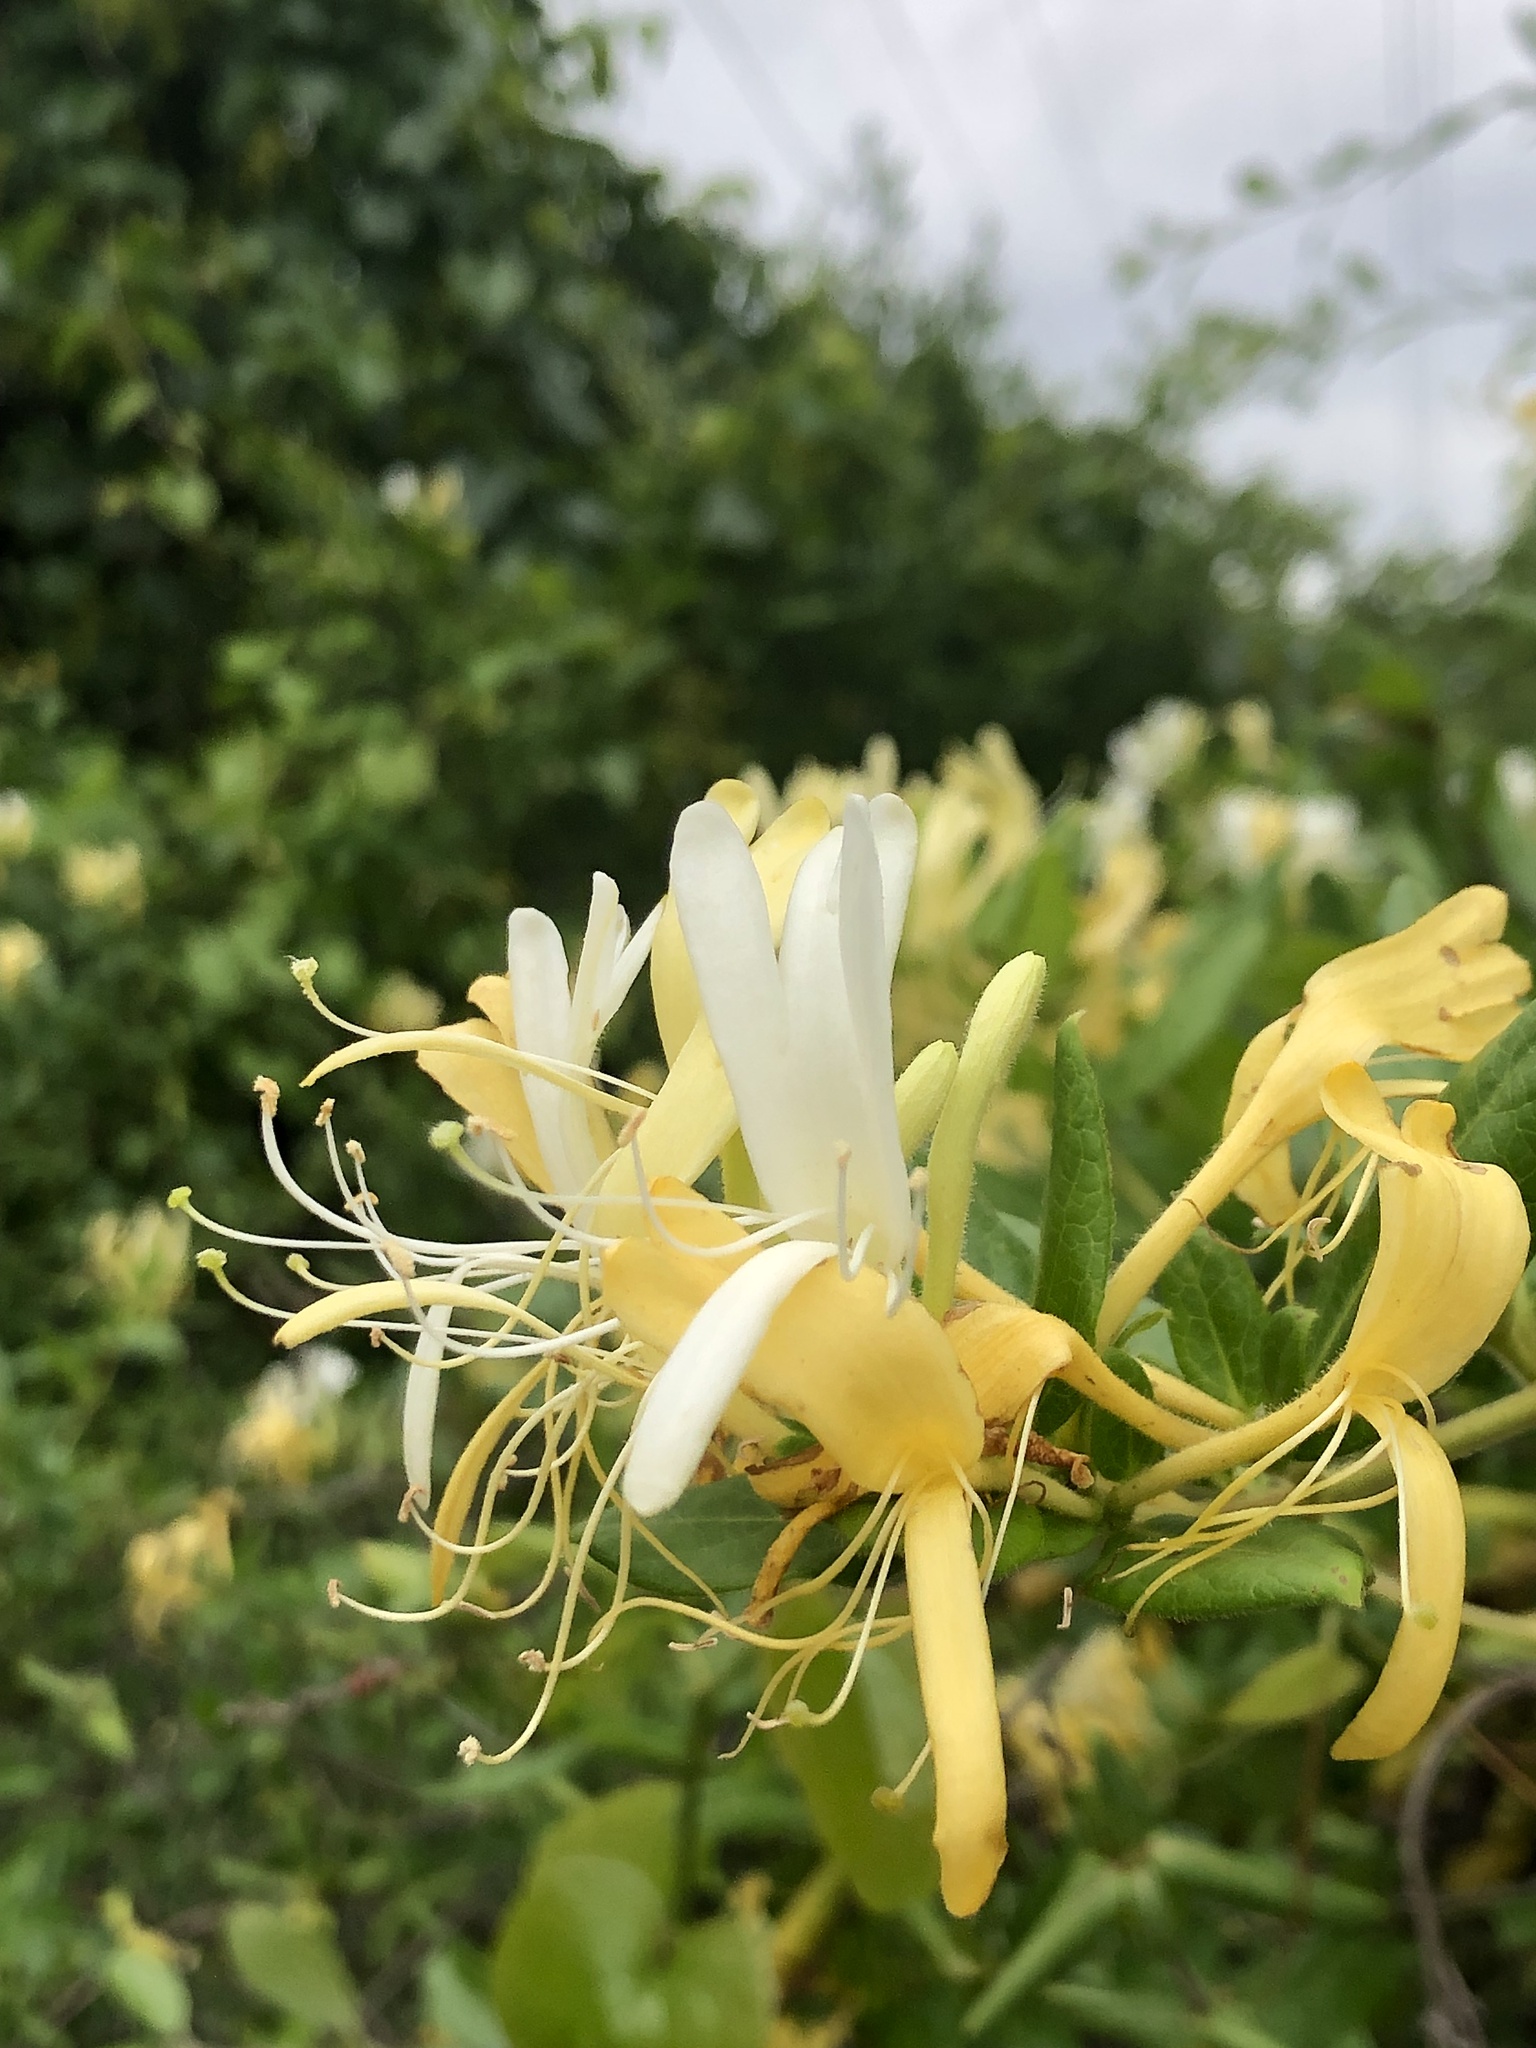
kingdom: Plantae
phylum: Tracheophyta
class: Magnoliopsida
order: Dipsacales
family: Caprifoliaceae
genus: Lonicera
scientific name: Lonicera japonica
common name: Japanese honeysuckle
